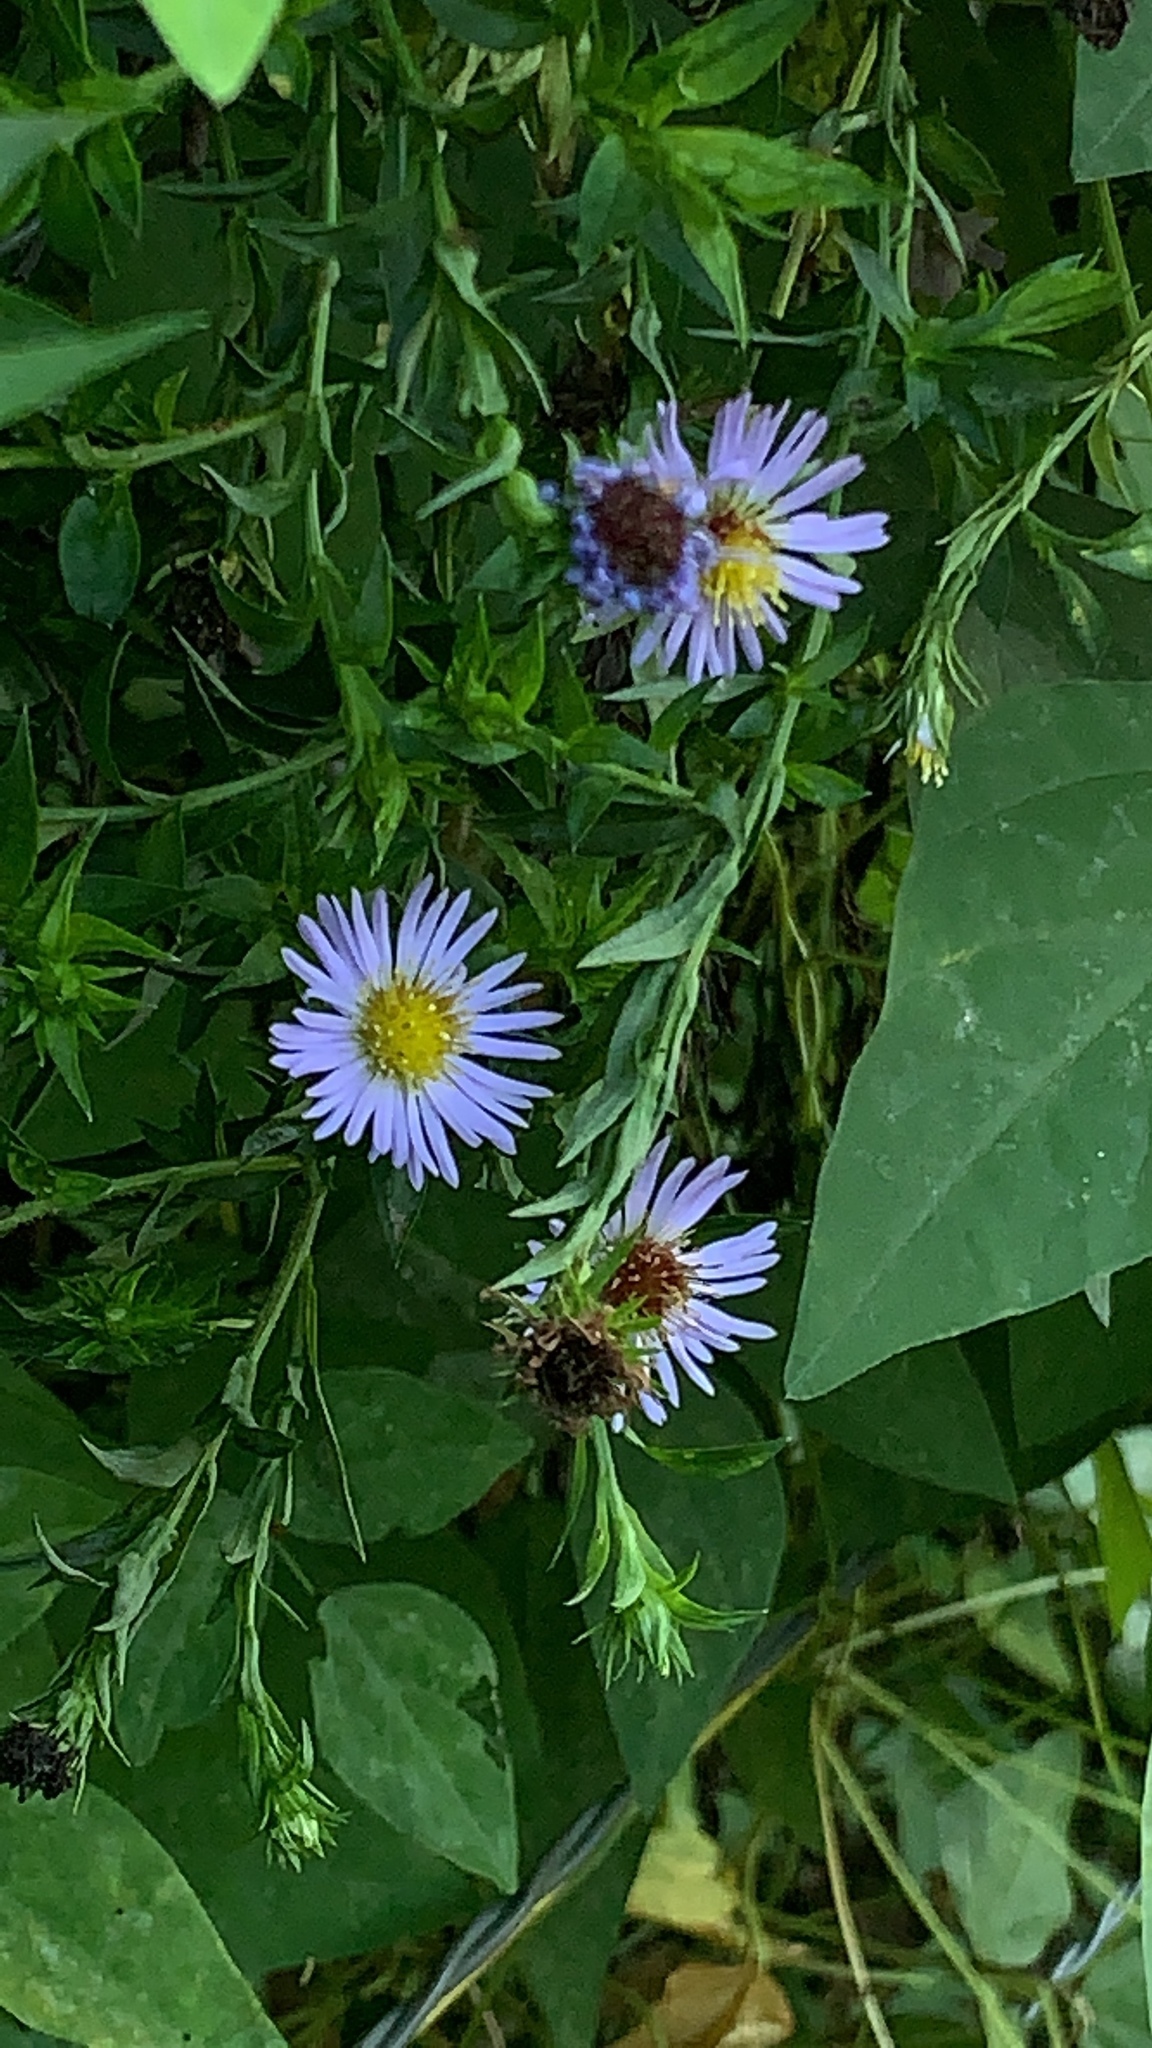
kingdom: Plantae
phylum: Tracheophyta
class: Magnoliopsida
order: Asterales
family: Asteraceae
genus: Symphyotrichum
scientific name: Symphyotrichum puniceum
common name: Bog aster
